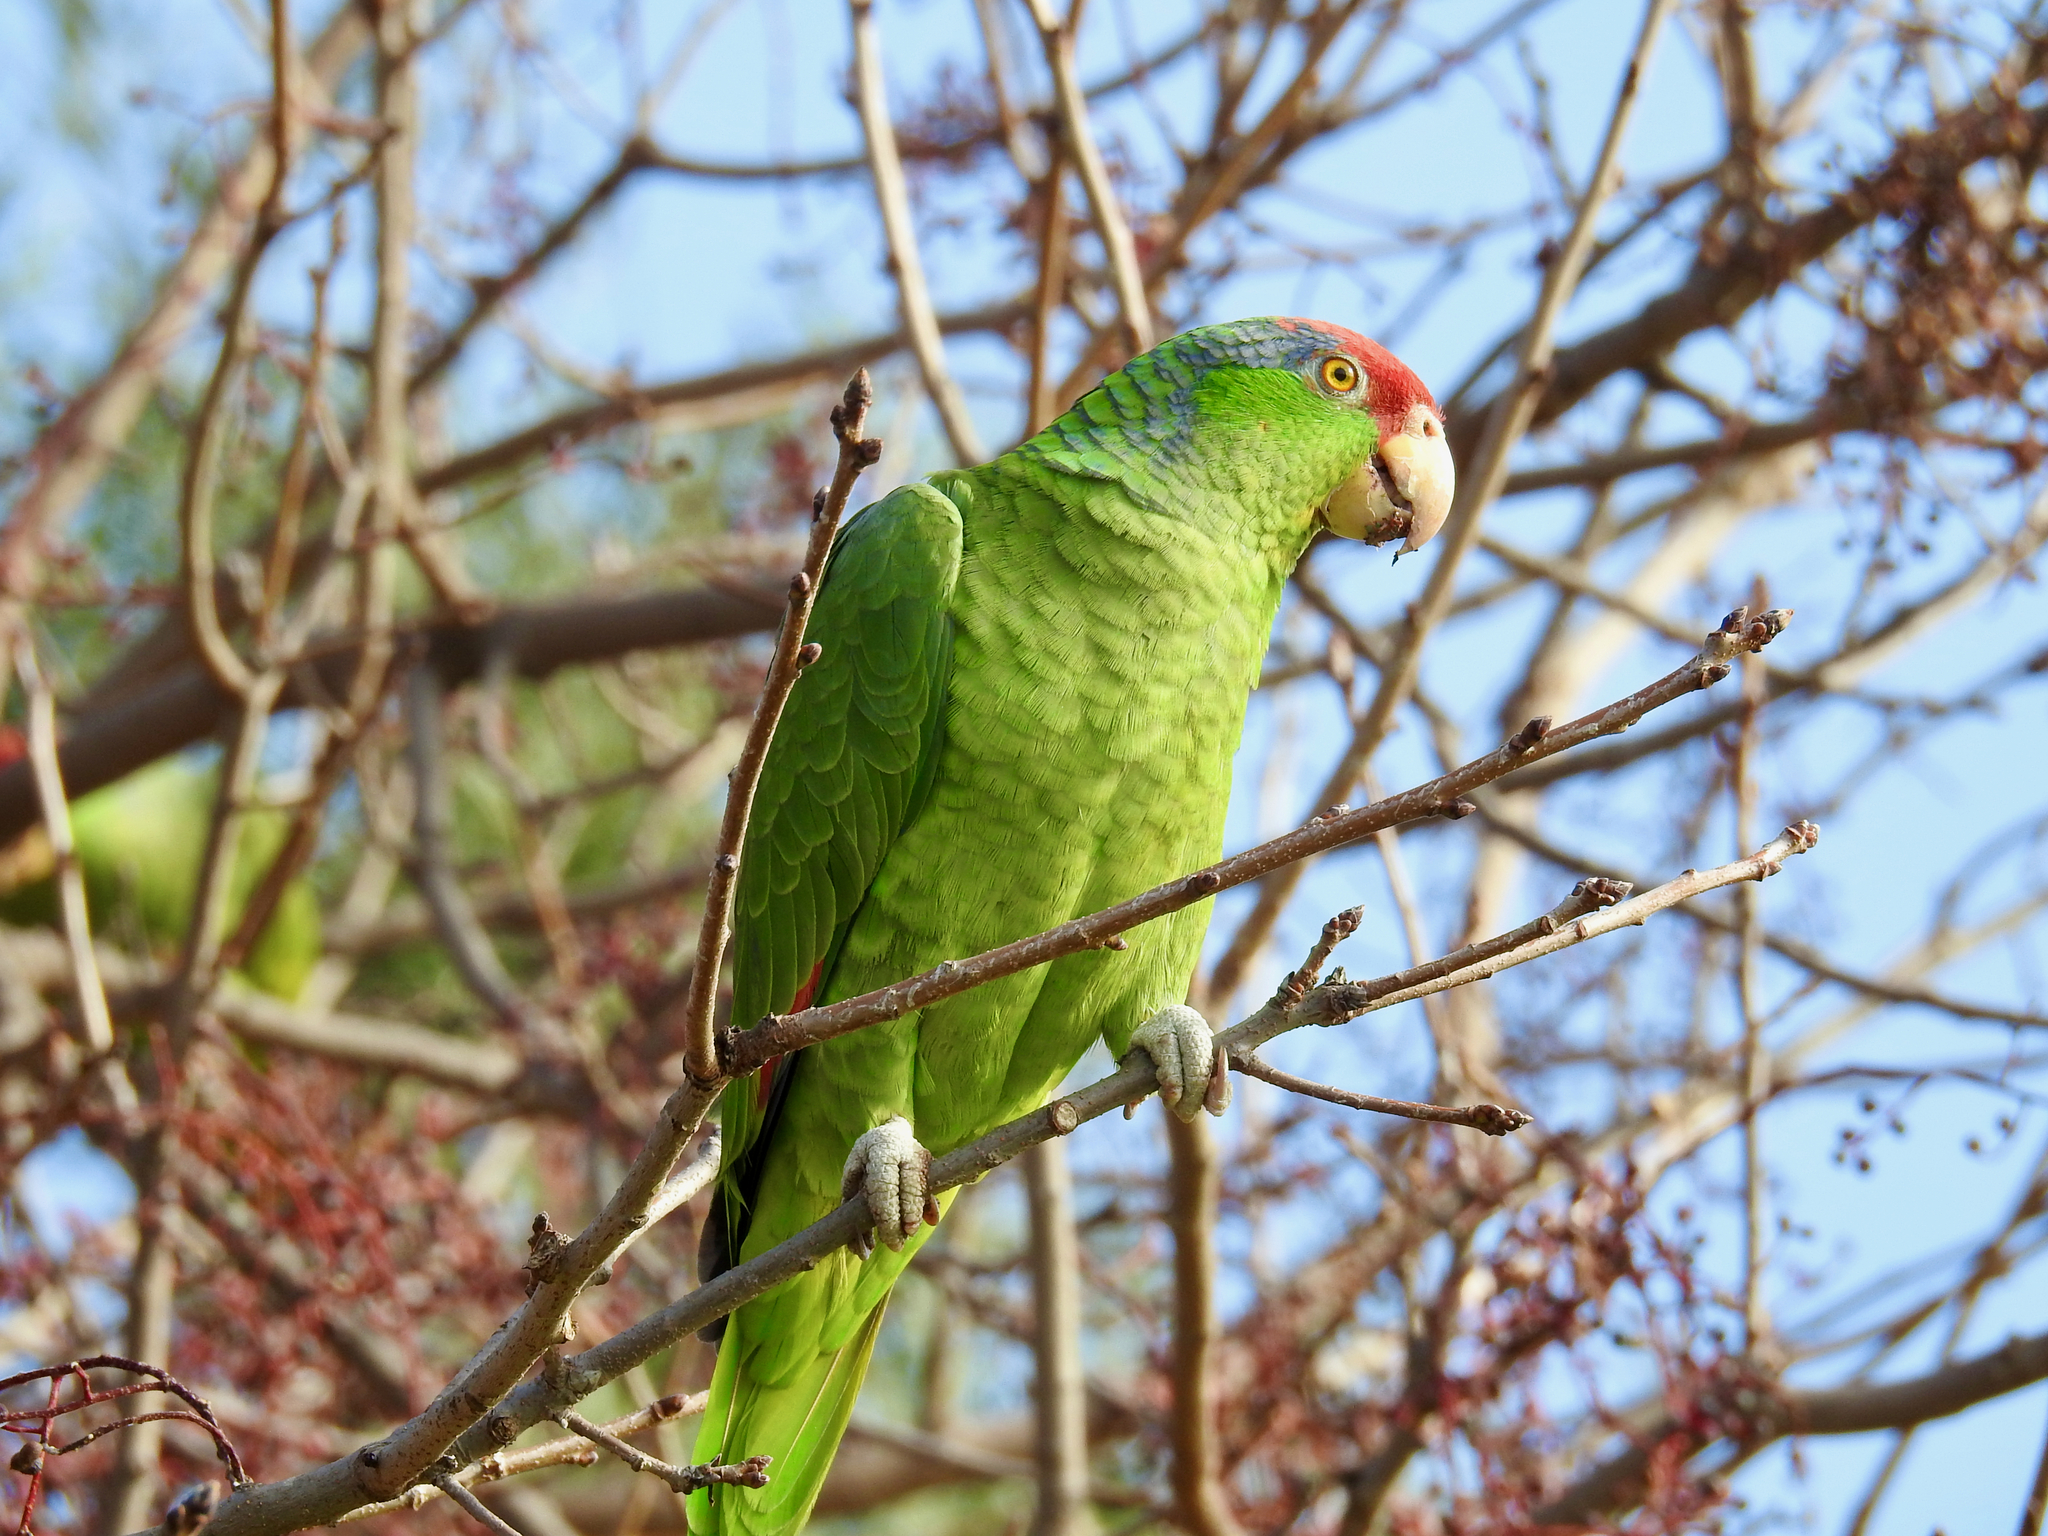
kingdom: Animalia
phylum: Chordata
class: Aves
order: Psittaciformes
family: Psittacidae
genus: Amazona
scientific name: Amazona viridigenalis
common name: Red-crowned amazon
